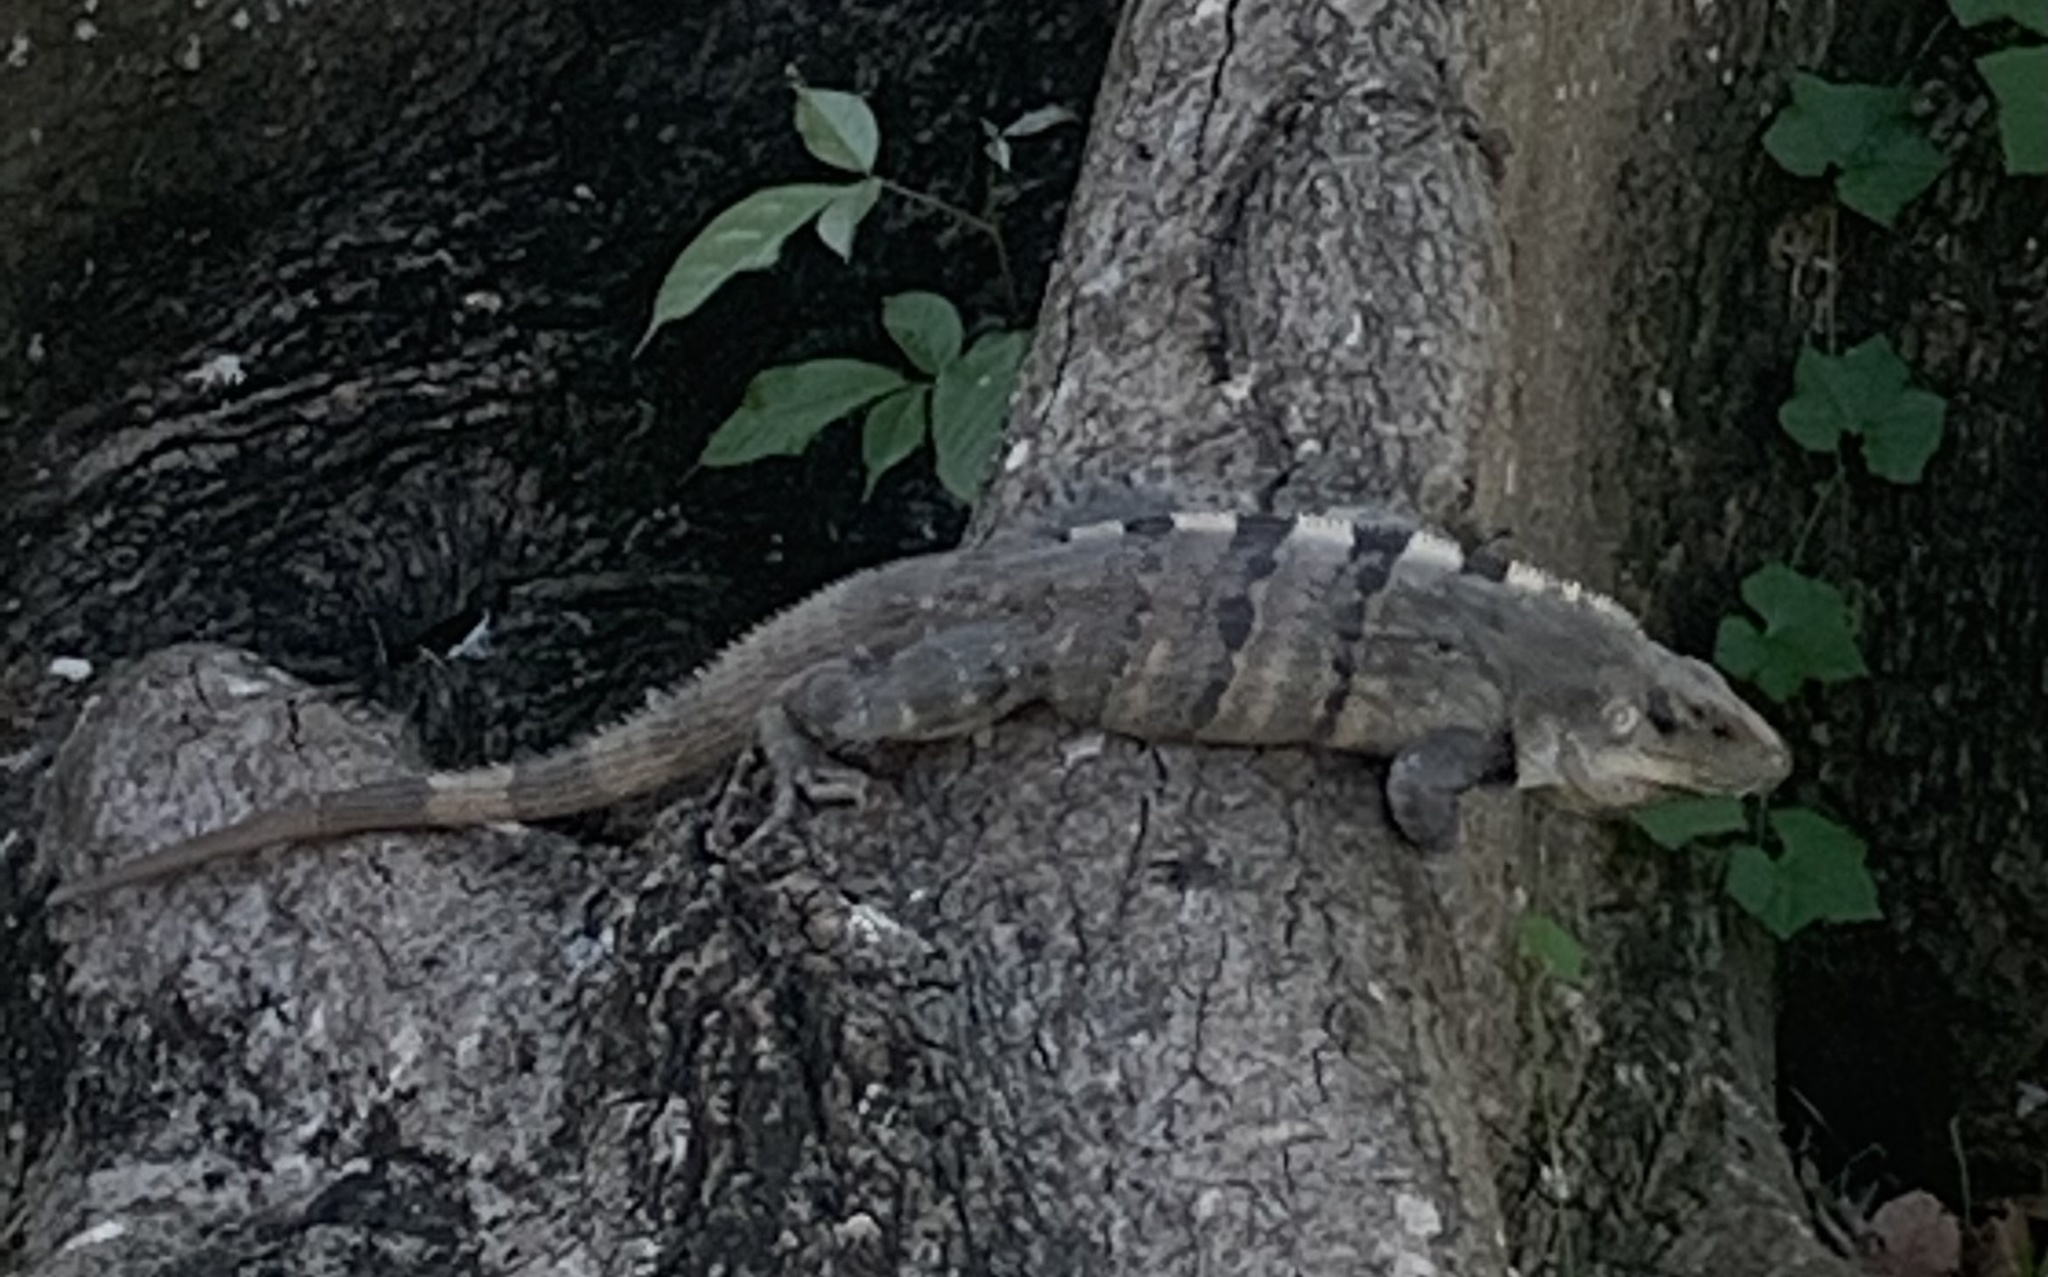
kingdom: Animalia
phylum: Chordata
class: Squamata
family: Iguanidae
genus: Ctenosaura
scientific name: Ctenosaura similis
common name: Black spiny-tailed iguana
